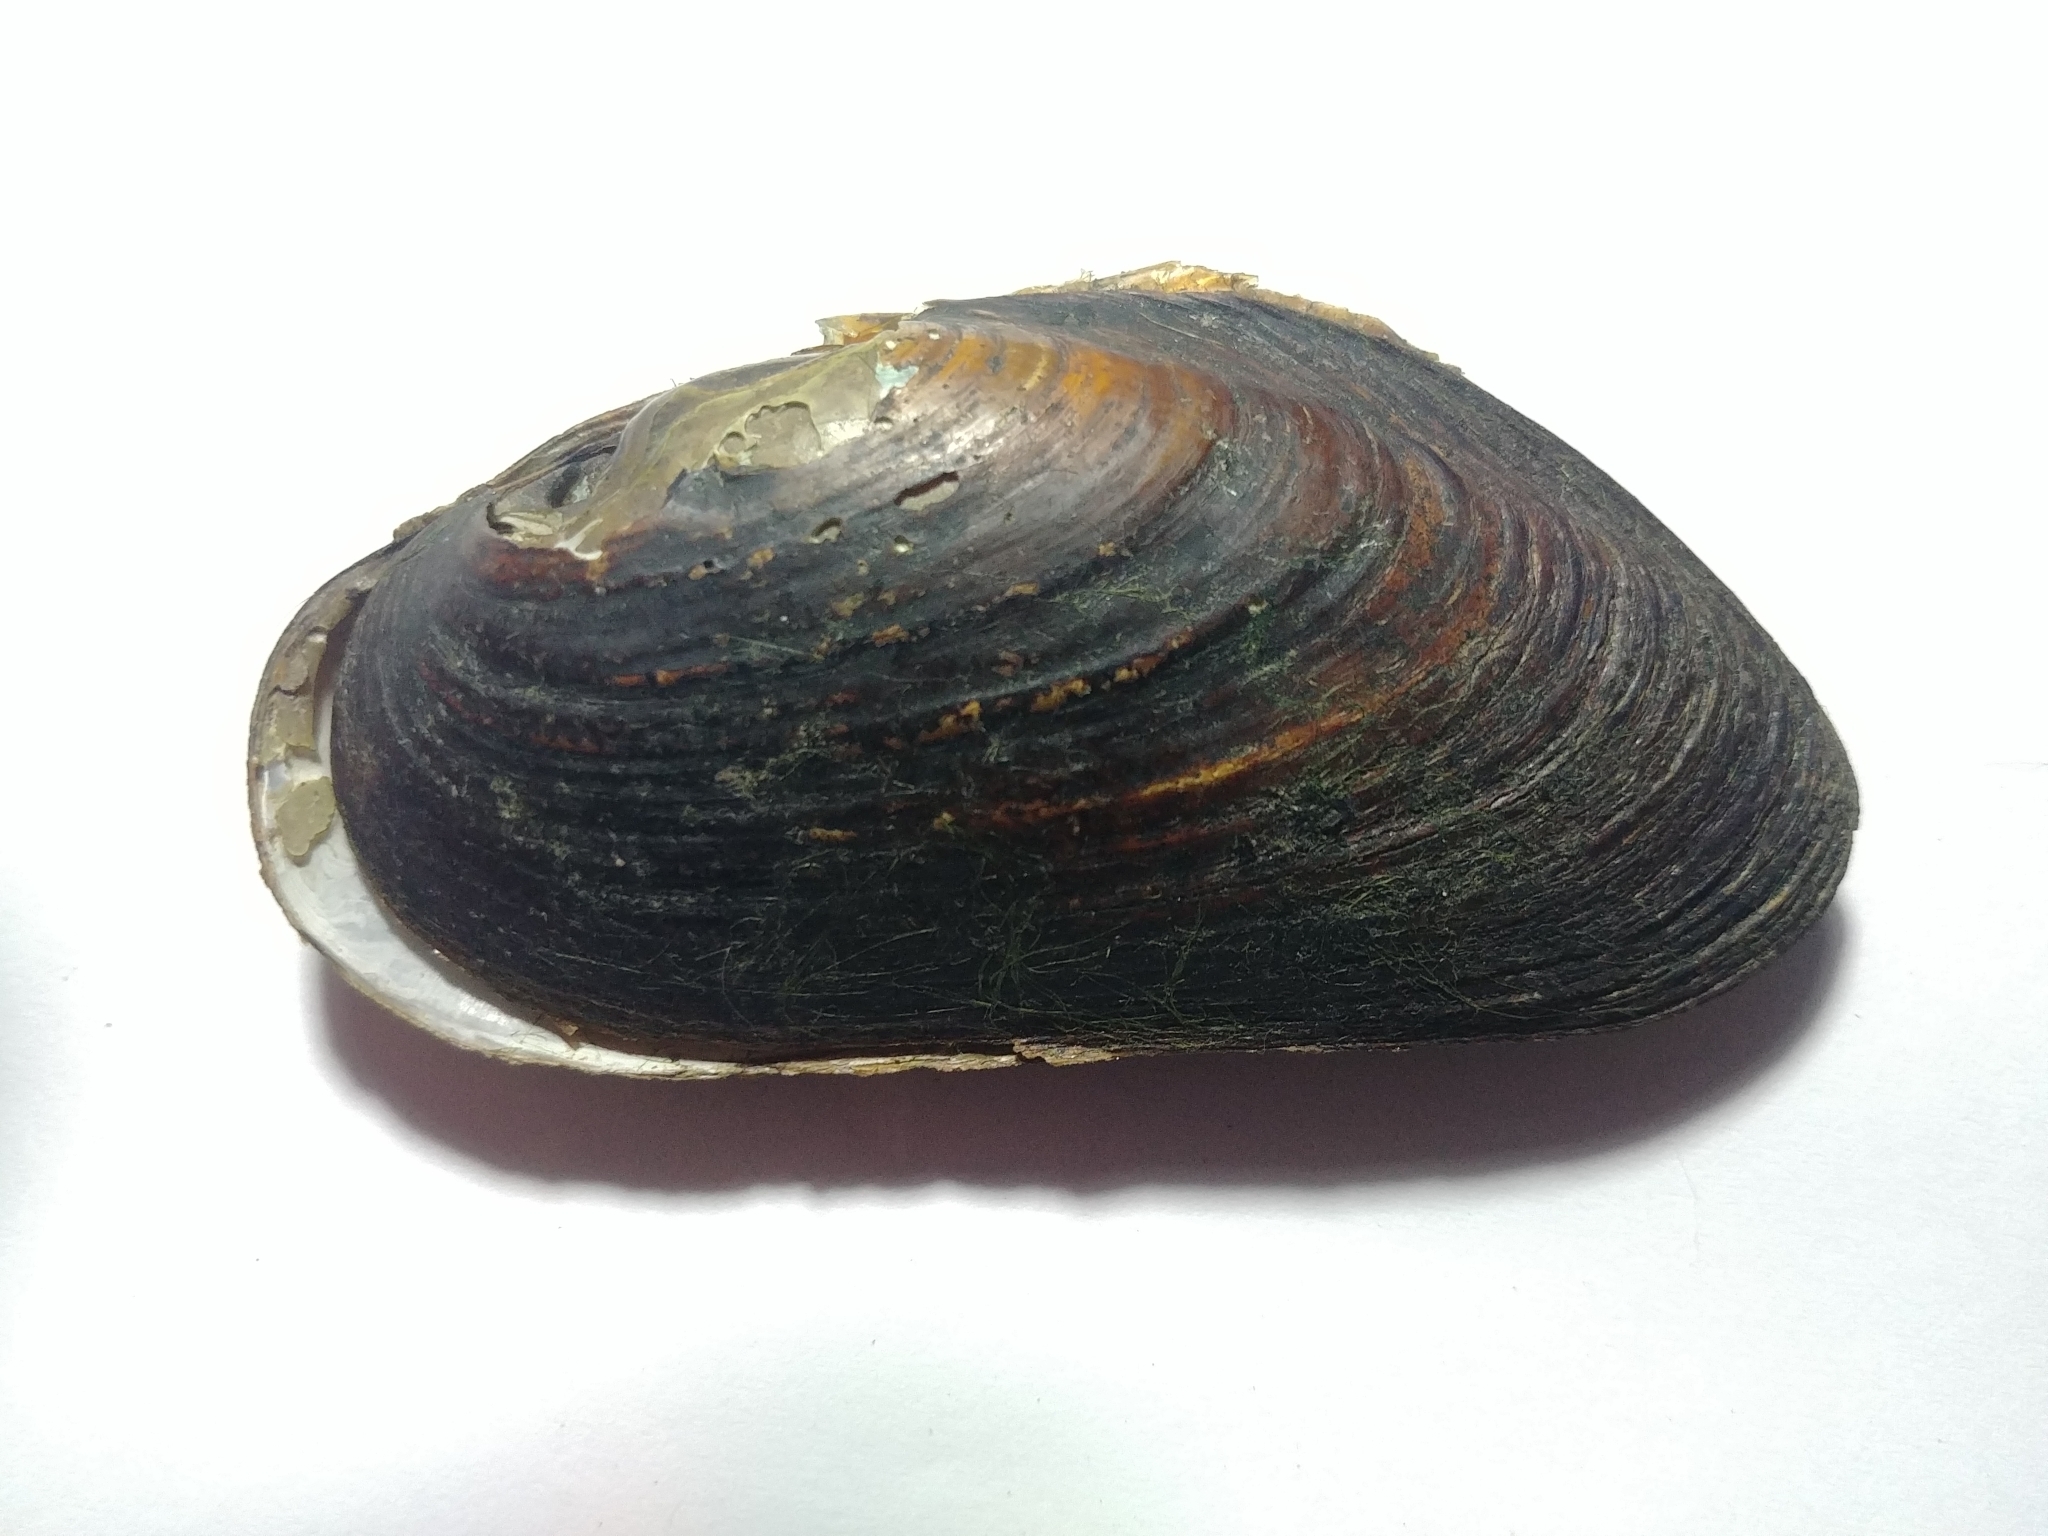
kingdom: Animalia
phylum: Mollusca
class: Bivalvia
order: Unionida
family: Margaritiferidae
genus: Margaritifera
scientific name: Margaritifera margaritifera
